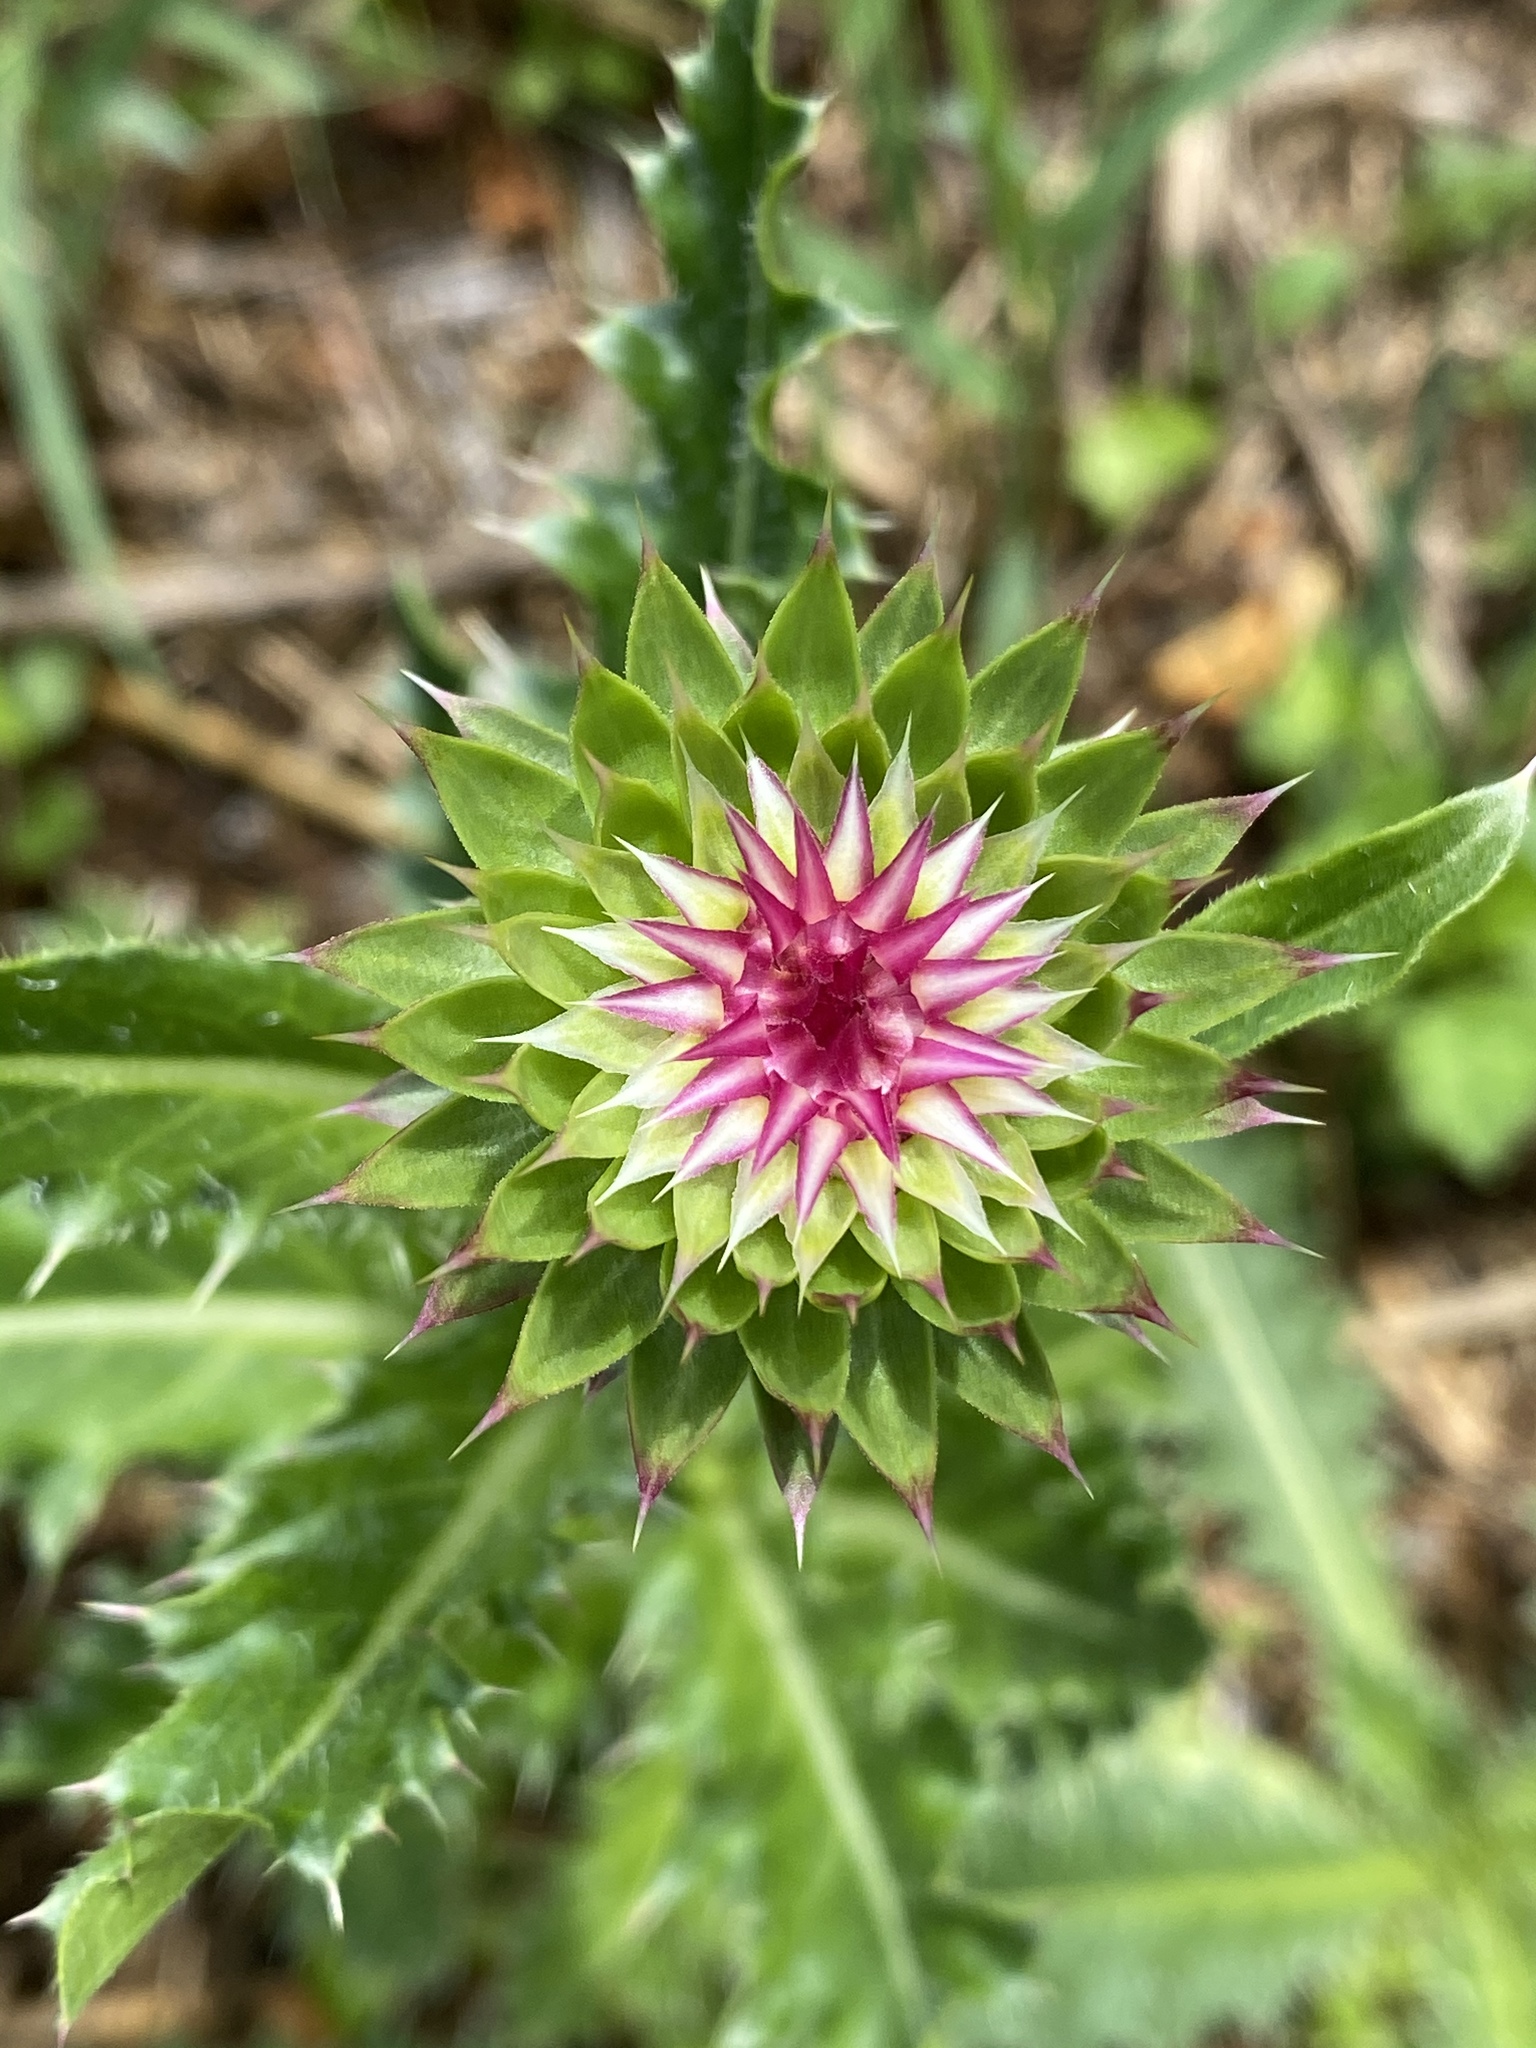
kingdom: Plantae
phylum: Tracheophyta
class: Magnoliopsida
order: Asterales
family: Asteraceae
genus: Carduus
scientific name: Carduus nutans
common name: Musk thistle
